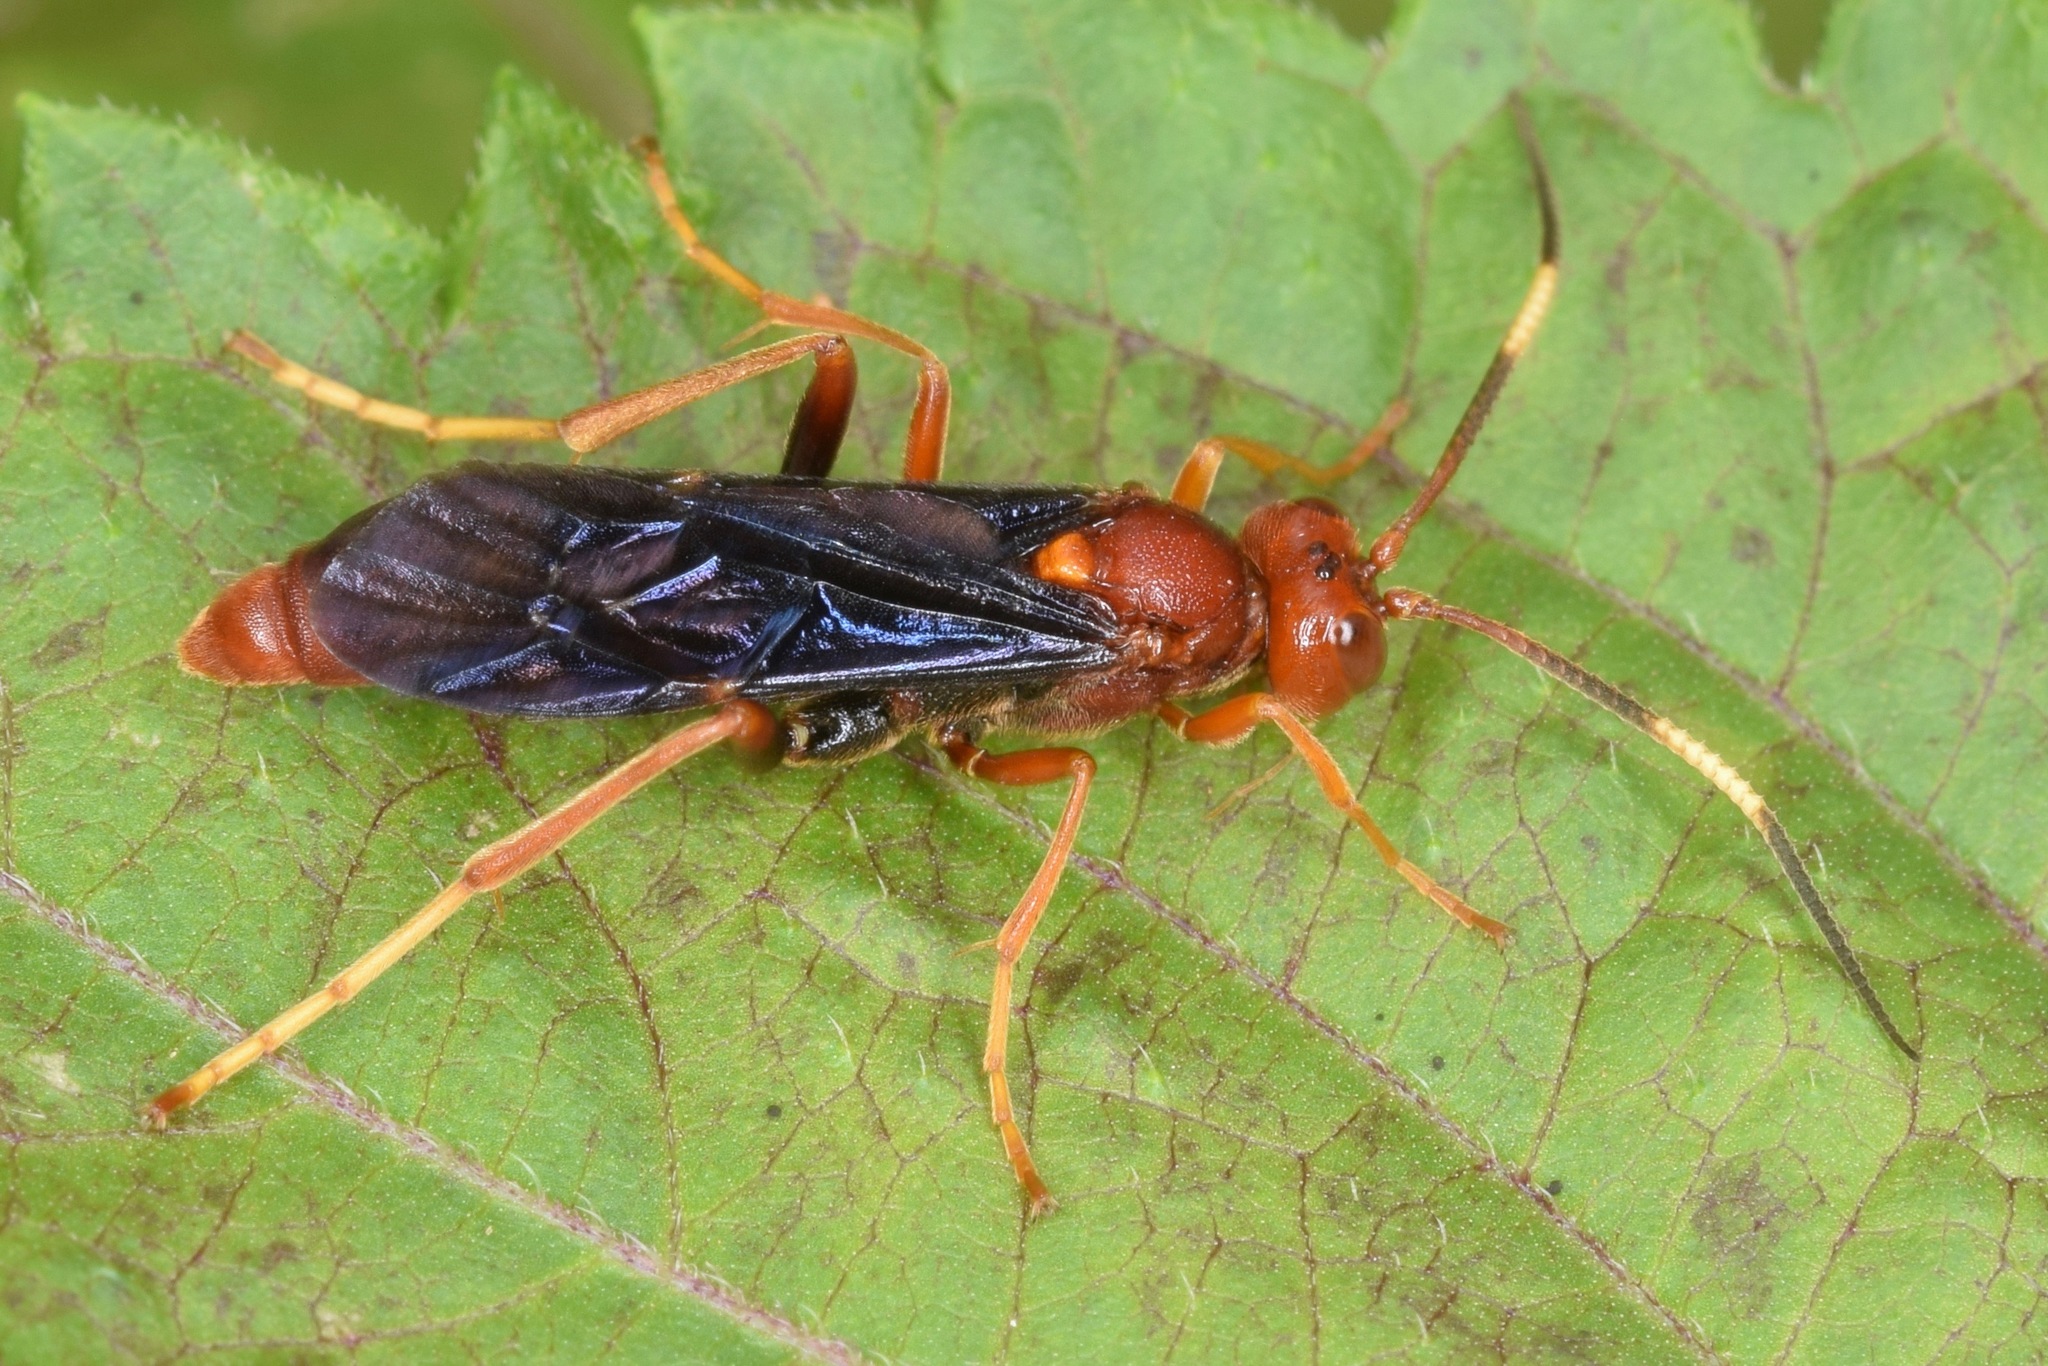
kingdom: Animalia
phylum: Arthropoda
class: Insecta
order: Hymenoptera
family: Ichneumonidae
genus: Trogomorpha
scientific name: Trogomorpha trogiformis
